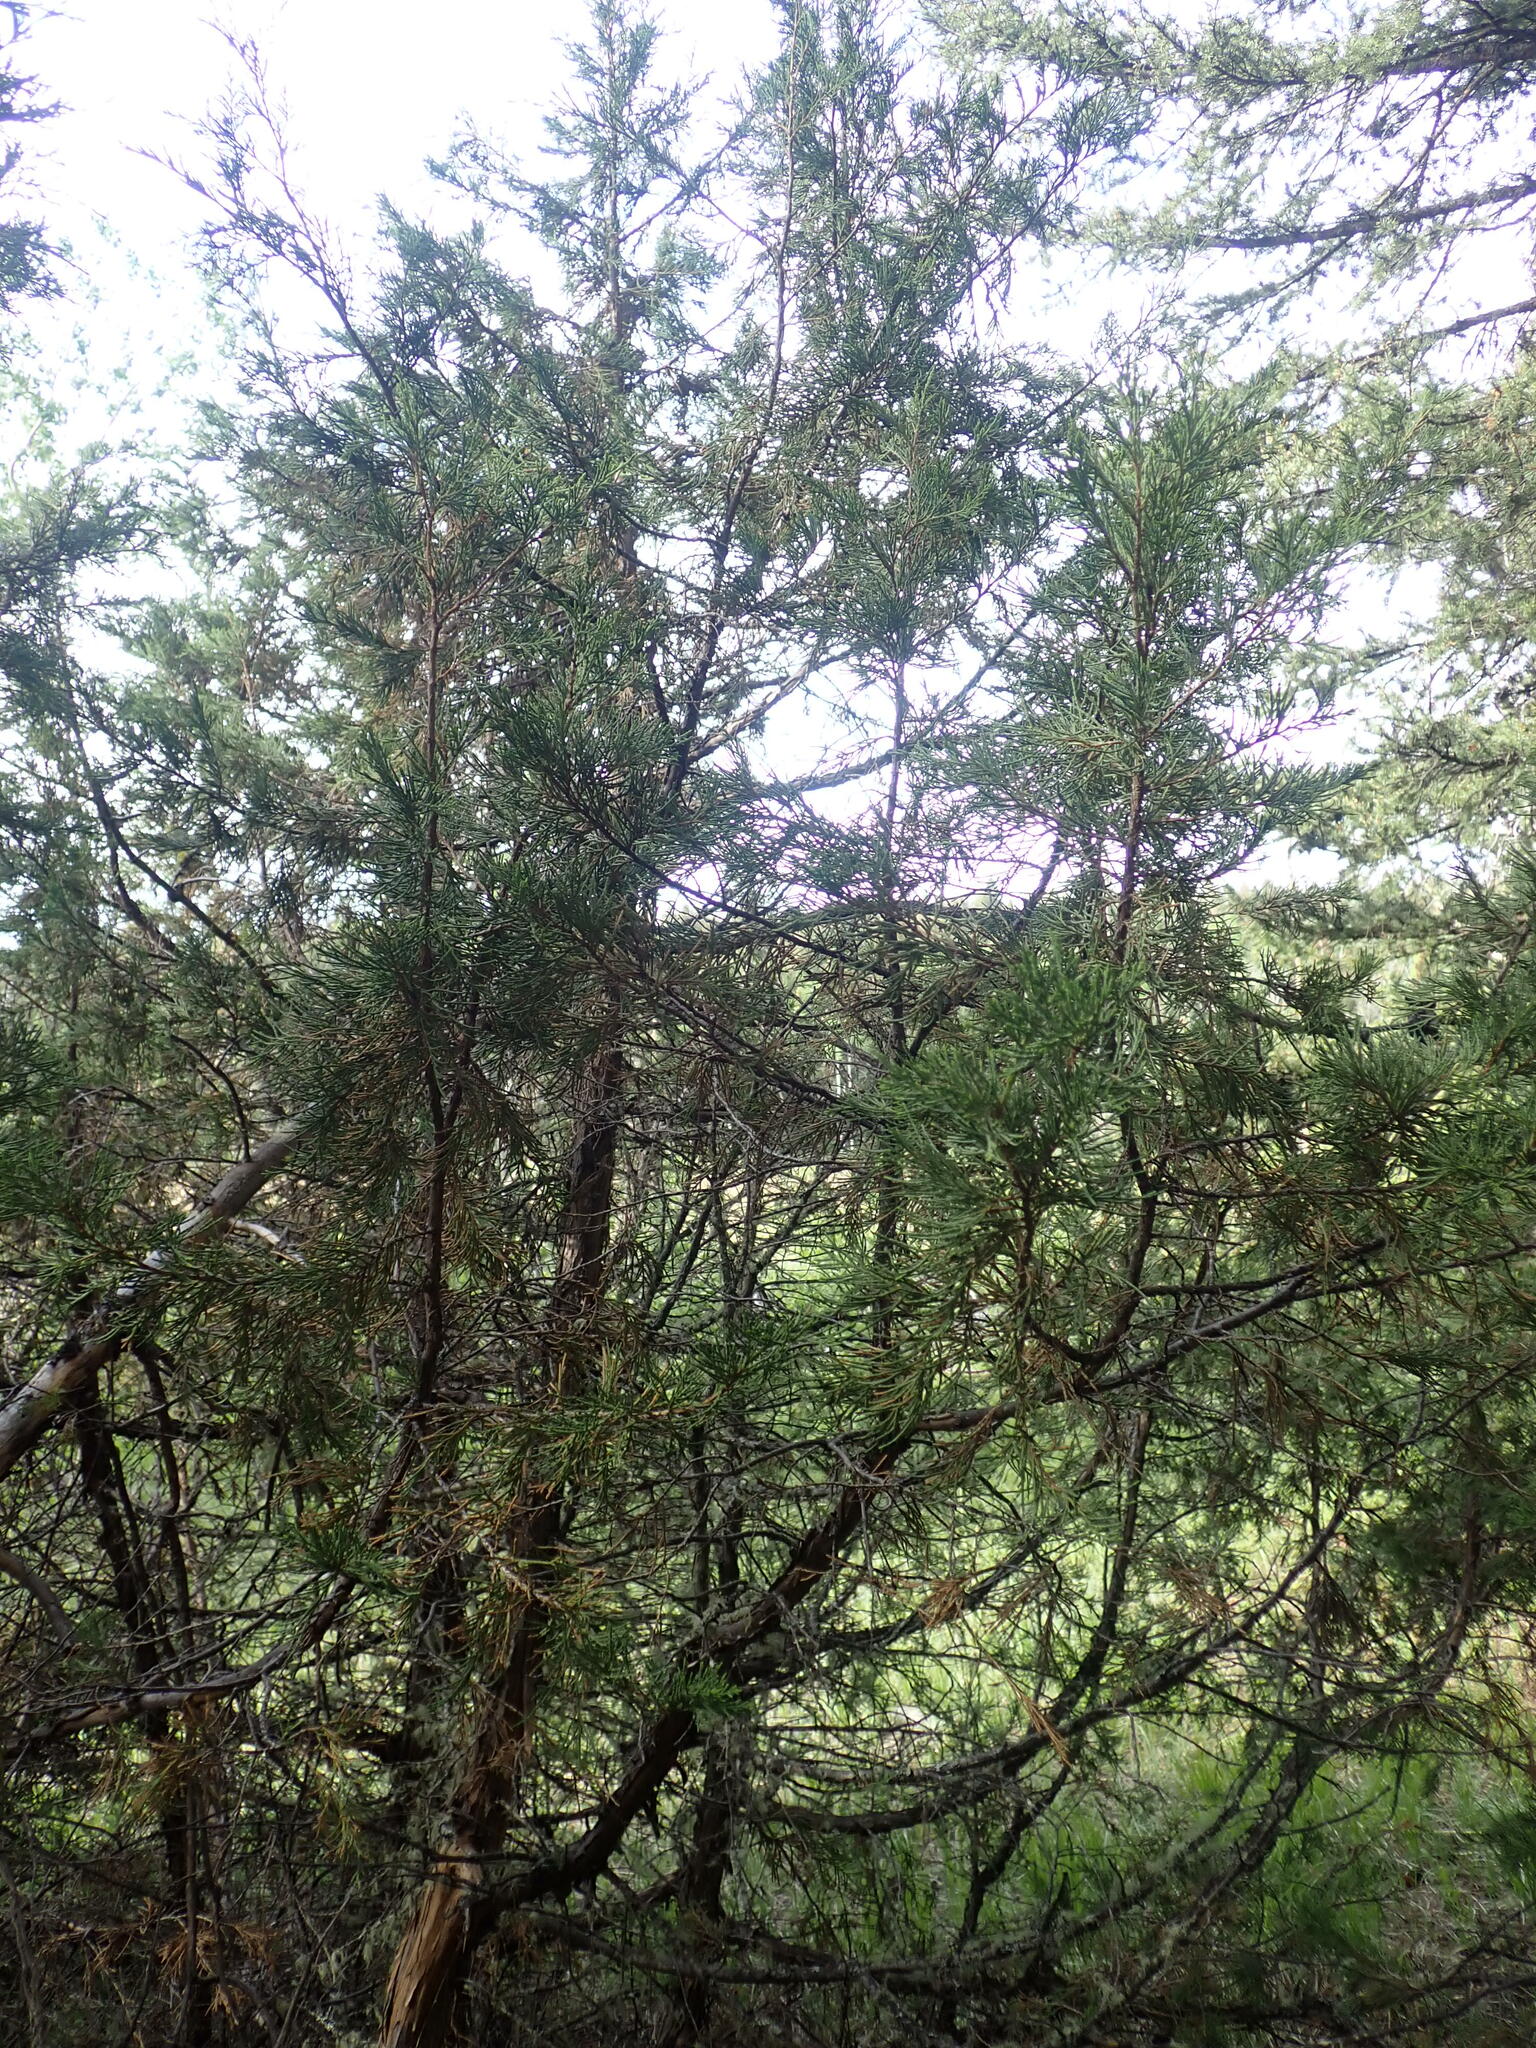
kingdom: Plantae
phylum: Tracheophyta
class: Pinopsida
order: Pinales
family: Cupressaceae
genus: Juniperus
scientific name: Juniperus scopulorum
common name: Rocky mountain juniper
